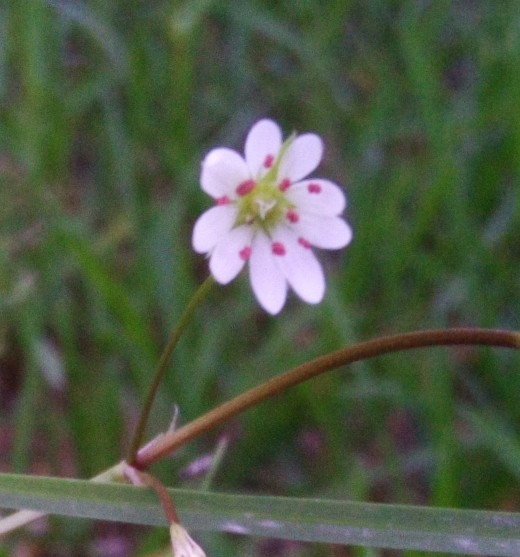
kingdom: Plantae
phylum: Tracheophyta
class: Magnoliopsida
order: Caryophyllales
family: Caryophyllaceae
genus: Stellaria
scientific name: Stellaria graminea
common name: Grass-like starwort
